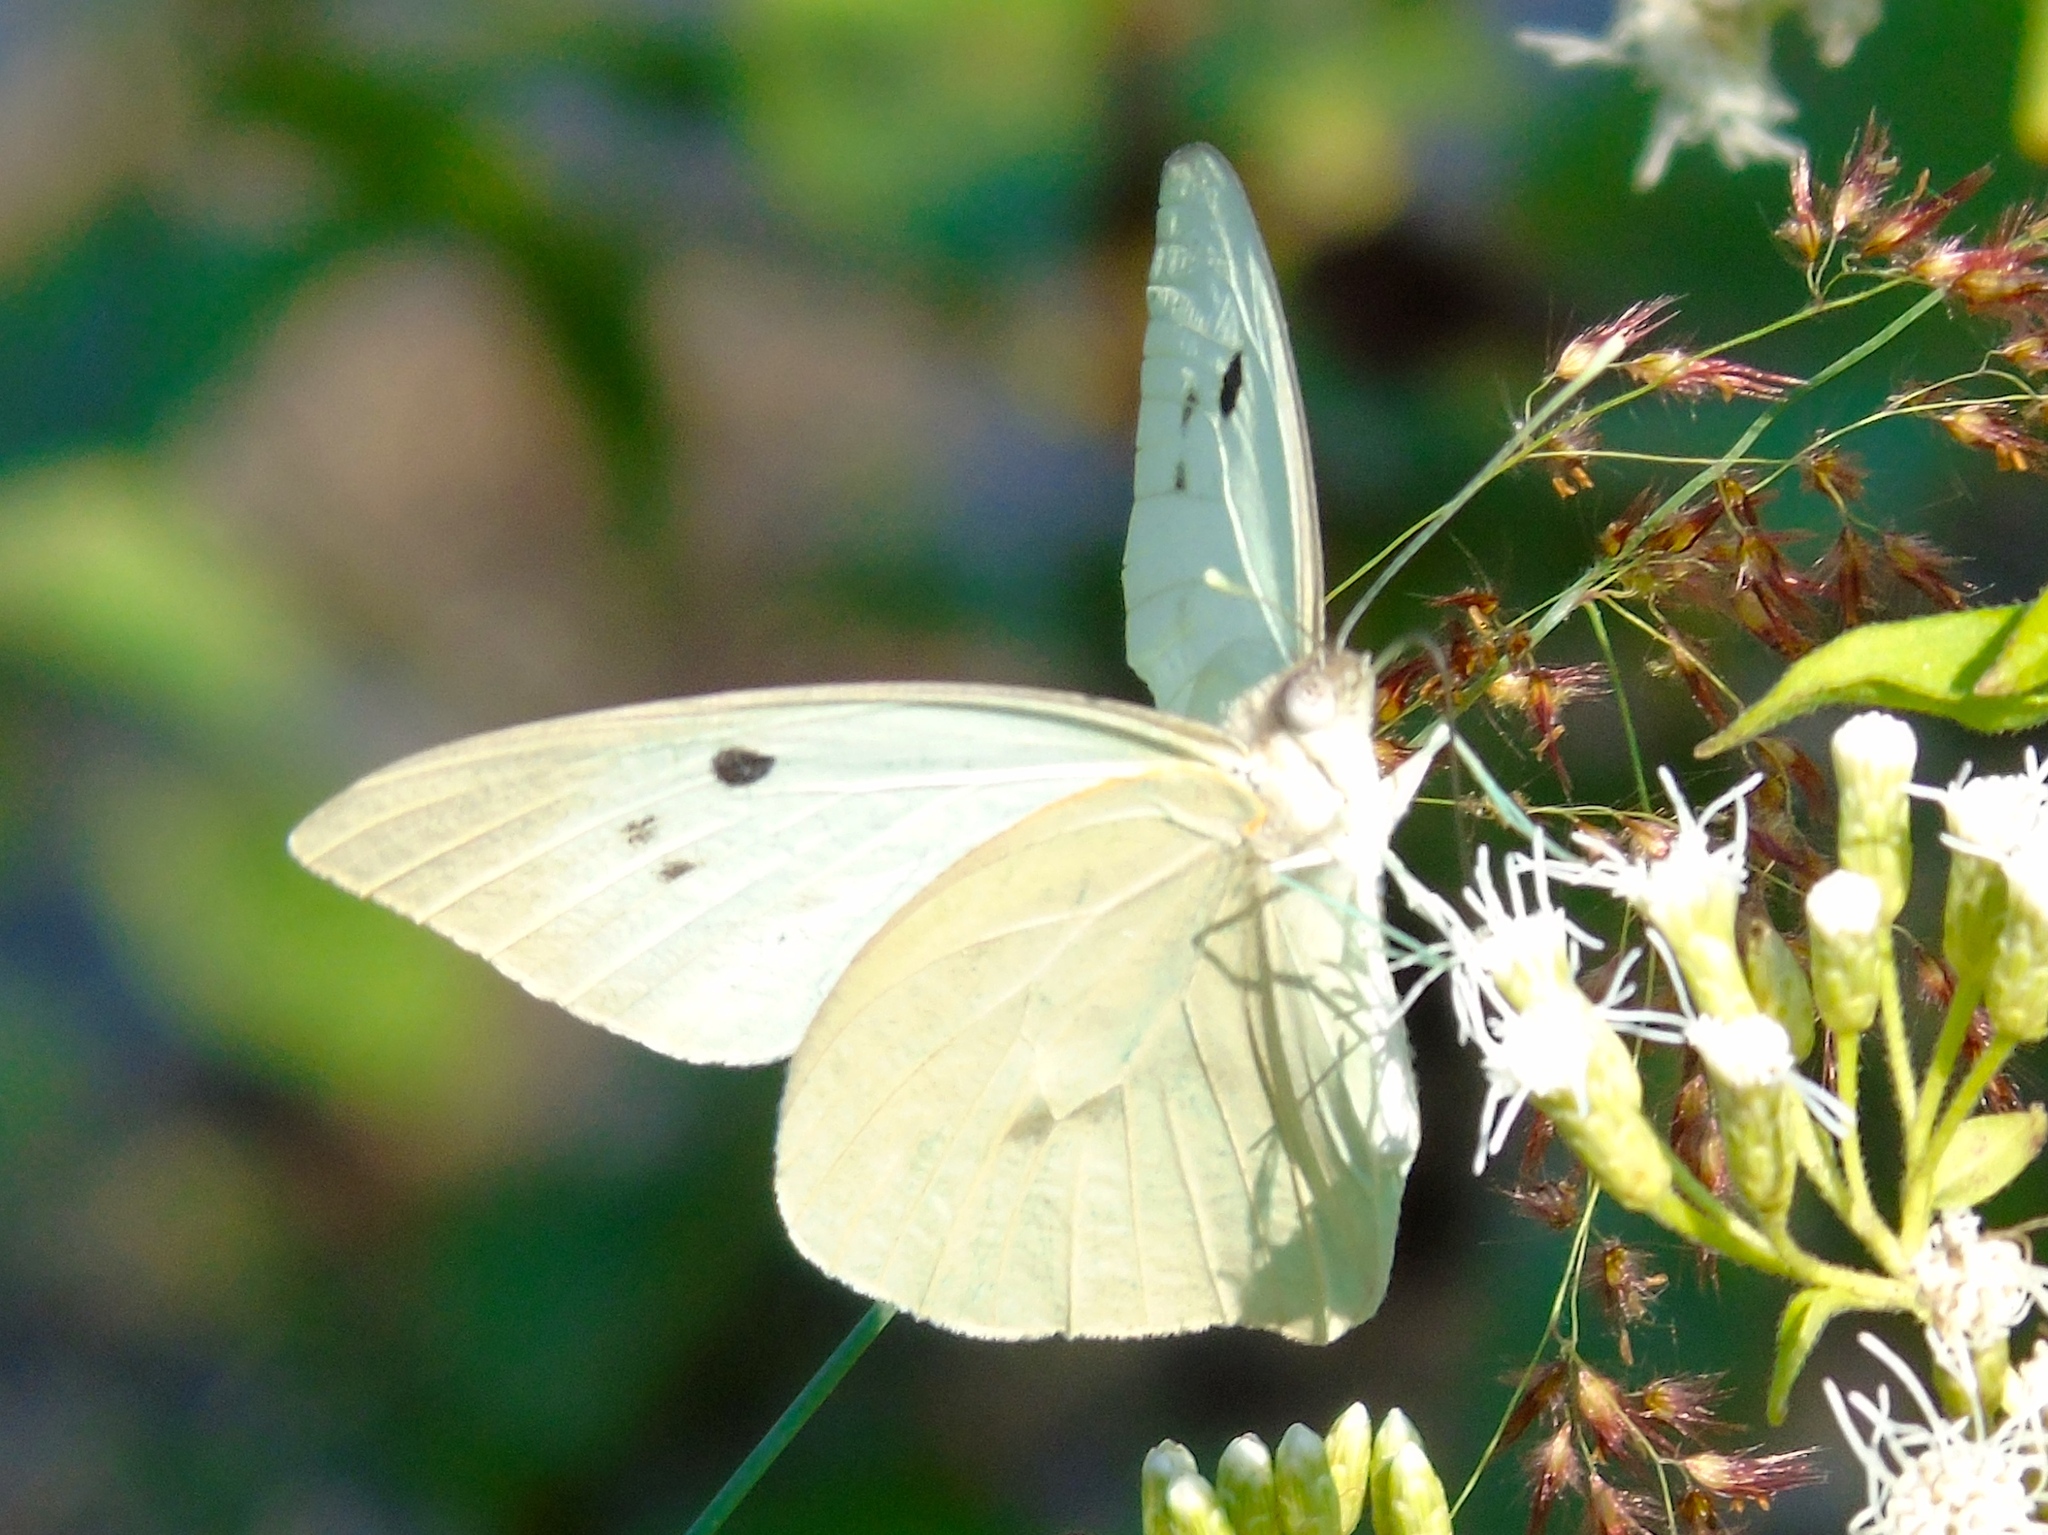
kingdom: Animalia
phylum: Arthropoda
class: Insecta
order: Lepidoptera
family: Pieridae
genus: Ganyra
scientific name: Ganyra josephina
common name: Giant white
